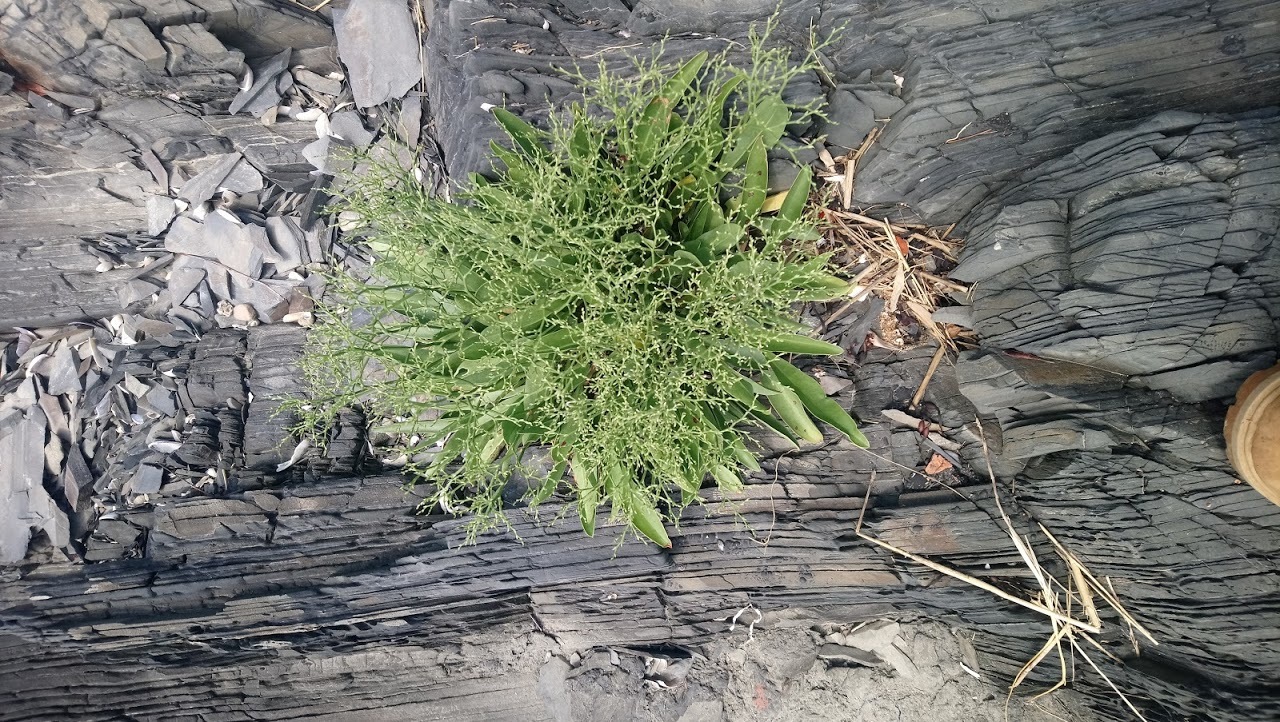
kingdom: Plantae
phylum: Tracheophyta
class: Magnoliopsida
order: Caryophyllales
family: Plumbaginaceae
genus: Limonium
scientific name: Limonium carolinianum
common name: Carolina sea lavender
